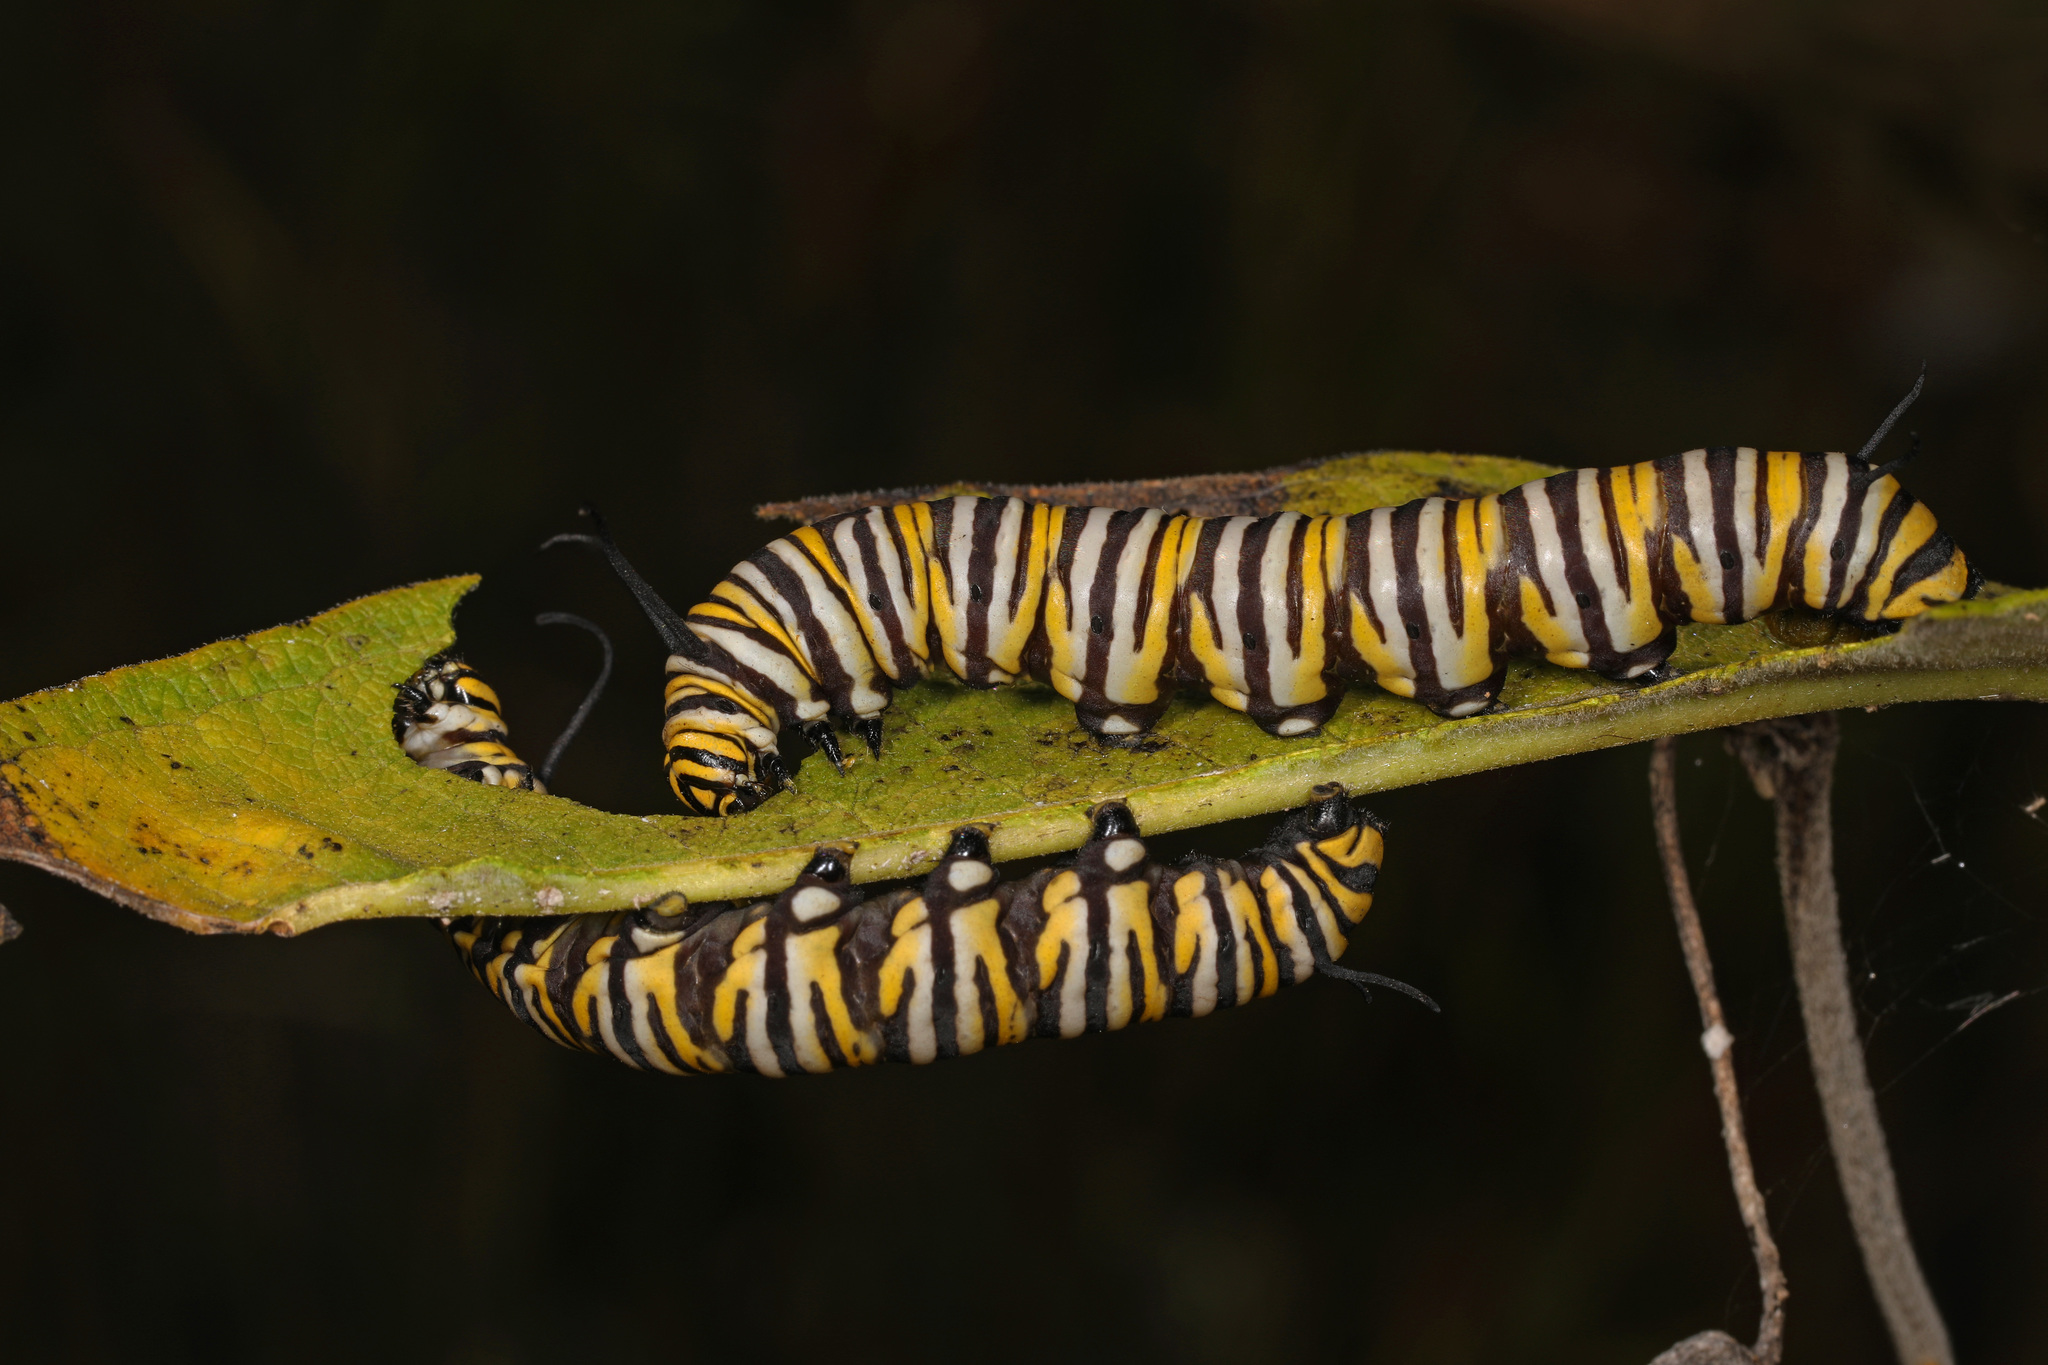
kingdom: Animalia
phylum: Arthropoda
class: Insecta
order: Lepidoptera
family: Nymphalidae
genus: Danaus
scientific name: Danaus plexippus
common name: Monarch
